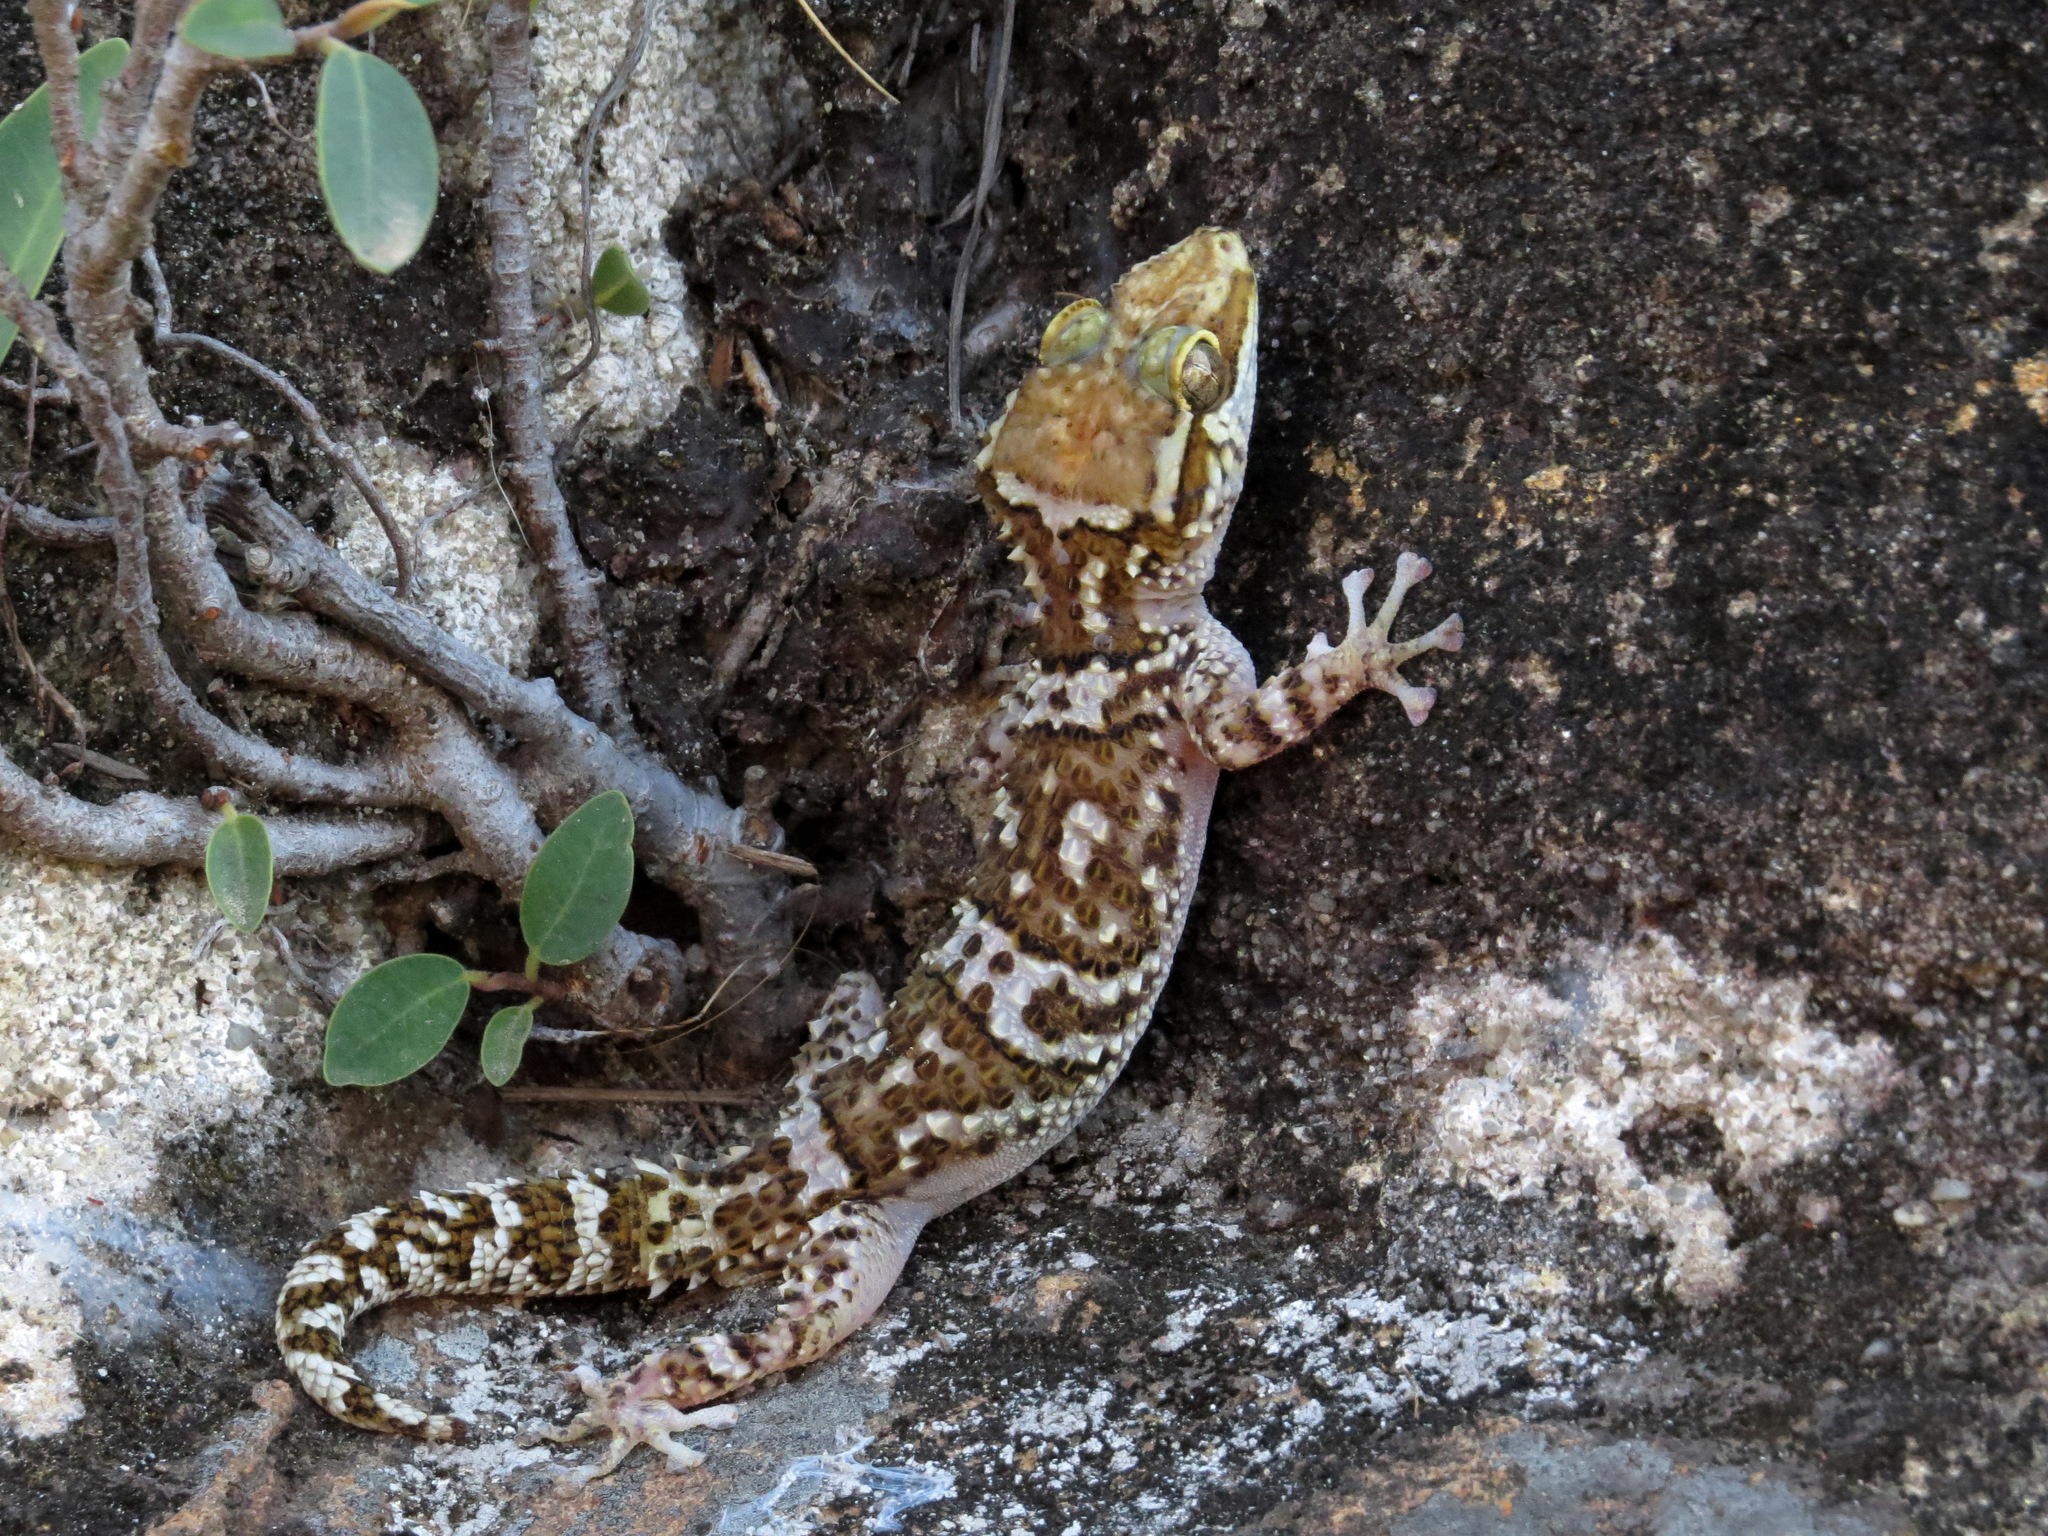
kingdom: Animalia
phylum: Chordata
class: Squamata
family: Gekkonidae
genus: Paroedura
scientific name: Paroedura rennerae
